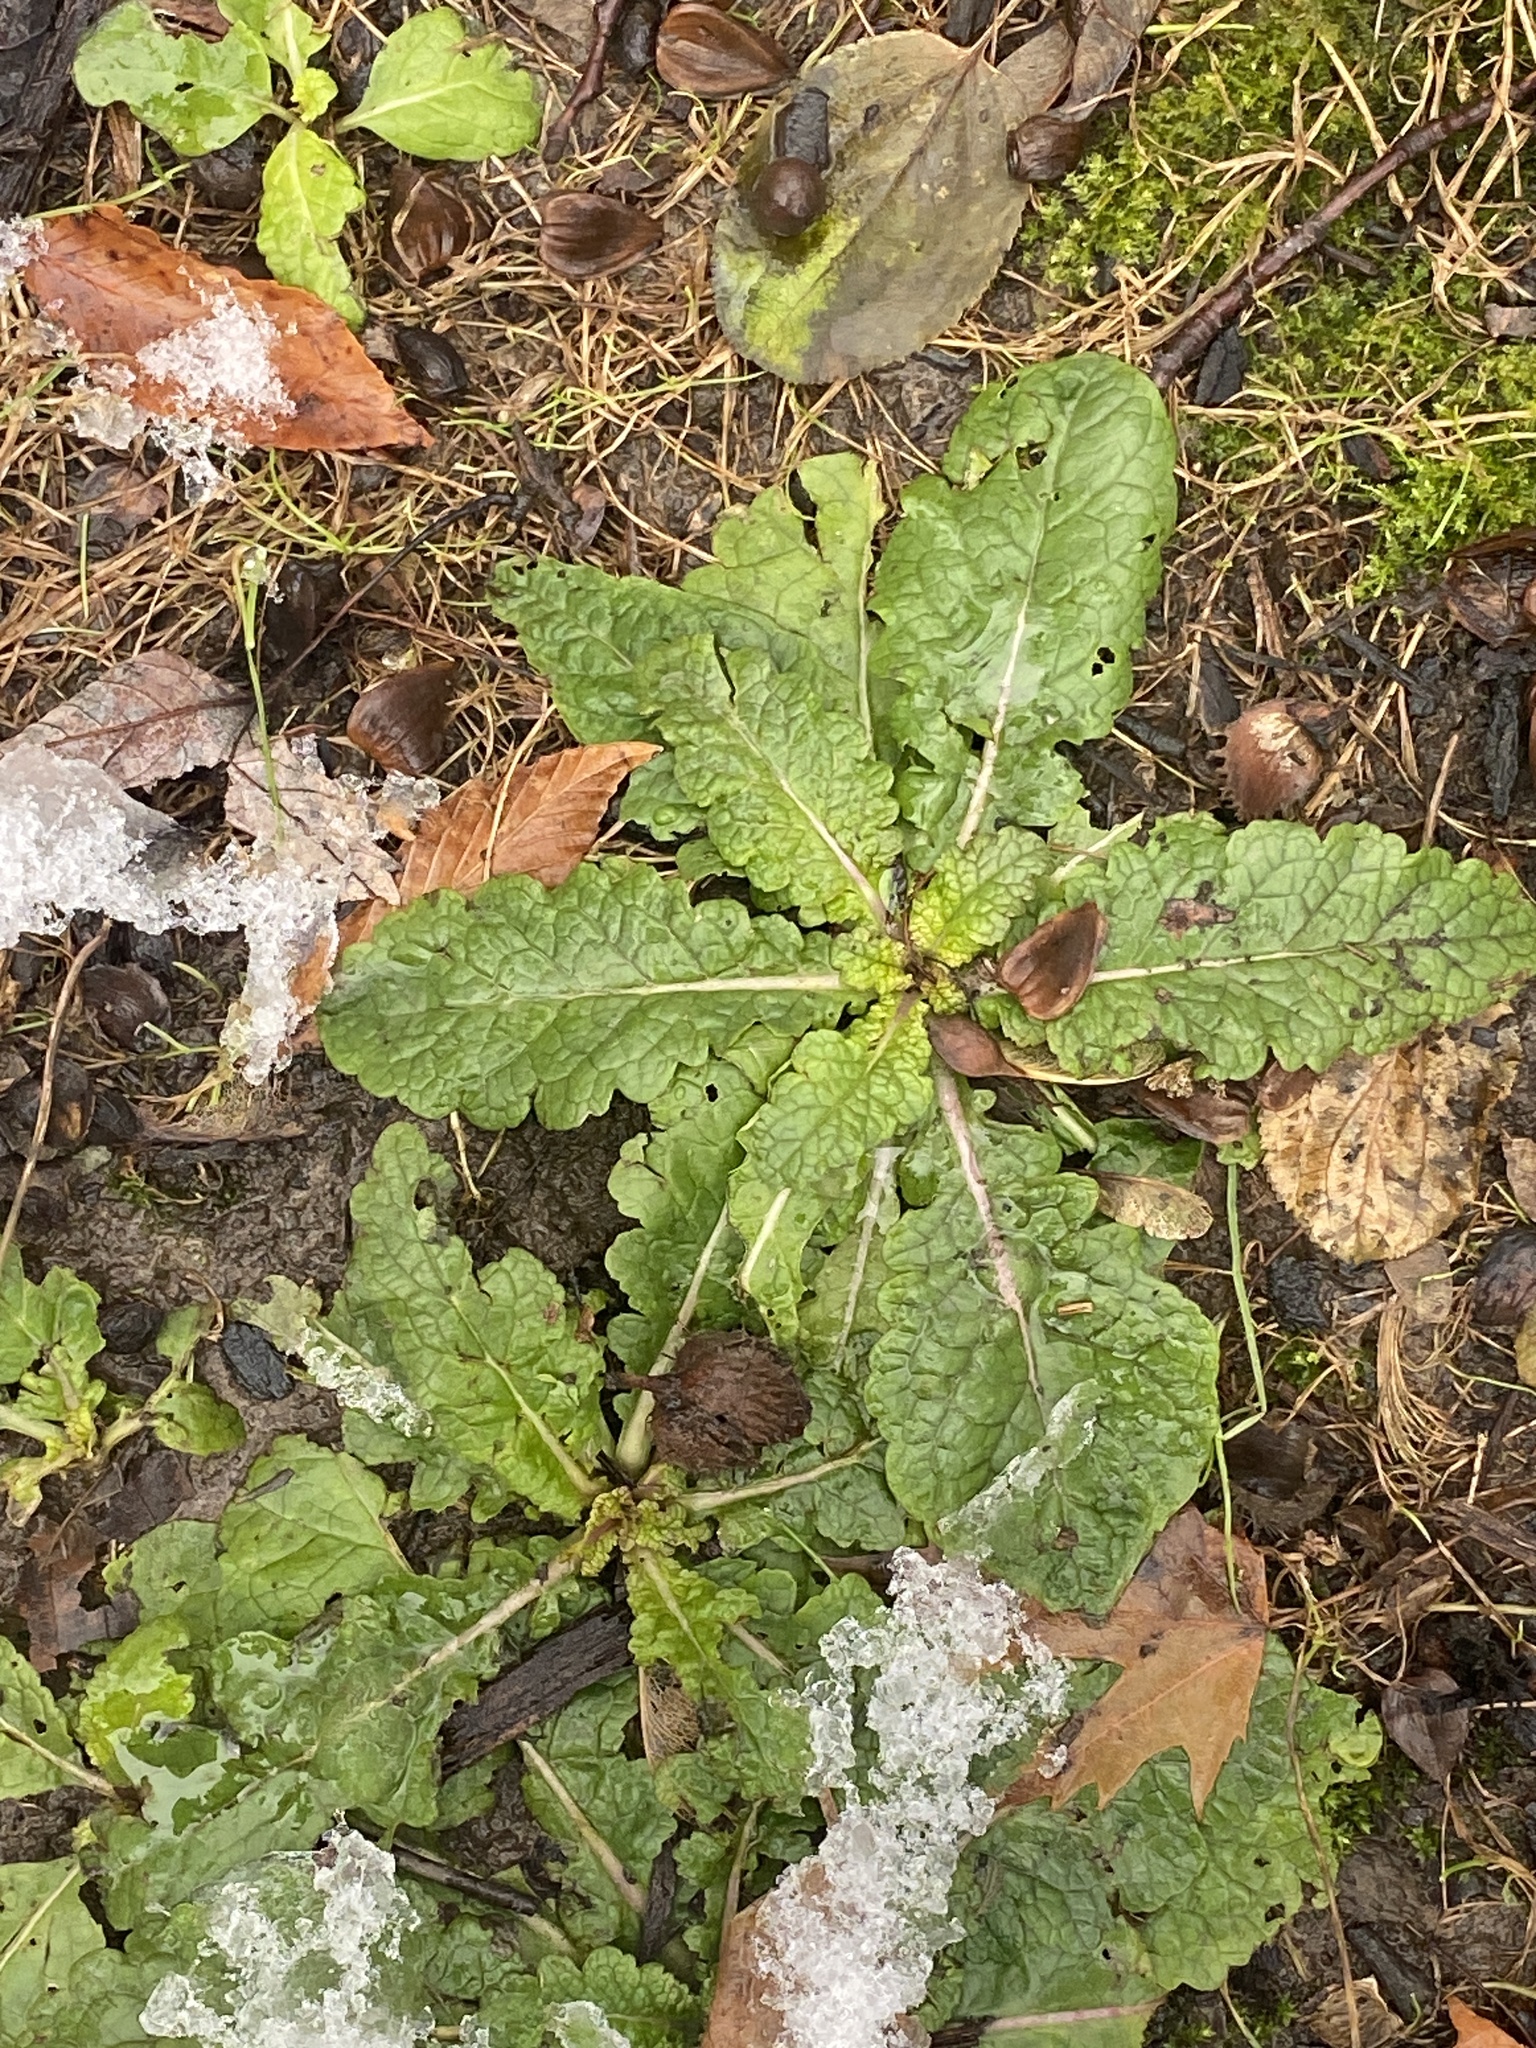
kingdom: Plantae
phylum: Tracheophyta
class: Magnoliopsida
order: Lamiales
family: Scrophulariaceae
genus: Verbascum
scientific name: Verbascum blattaria
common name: Moth mullein
